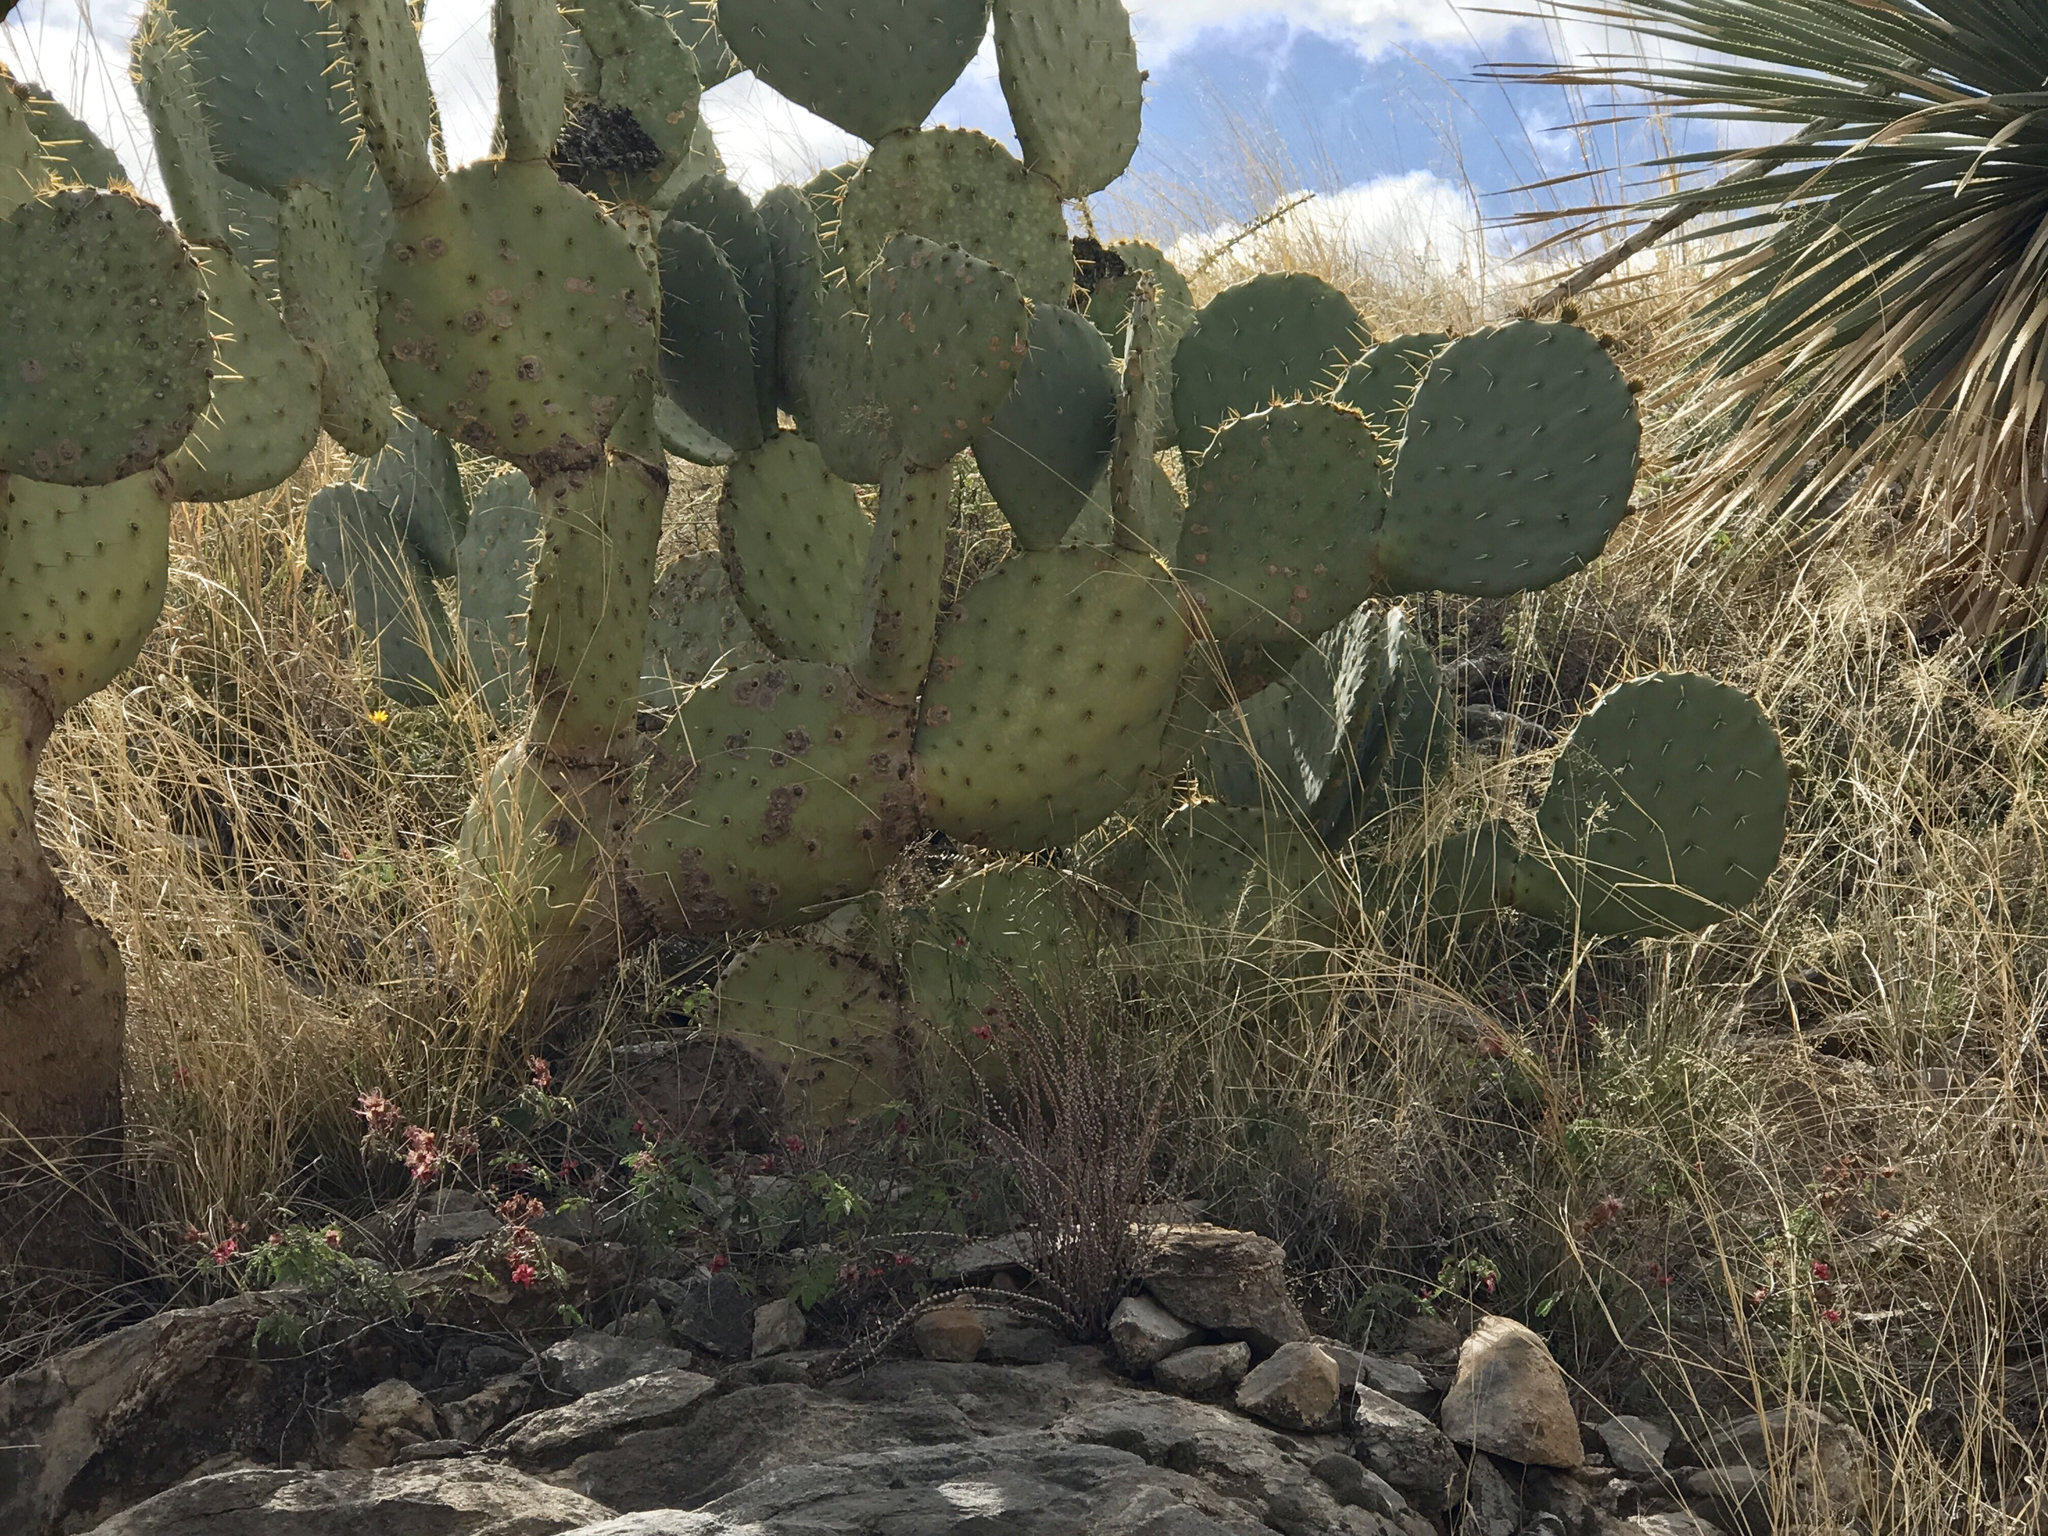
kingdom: Plantae
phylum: Tracheophyta
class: Magnoliopsida
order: Caryophyllales
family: Cactaceae
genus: Opuntia
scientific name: Opuntia engelmannii
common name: Cactus-apple
